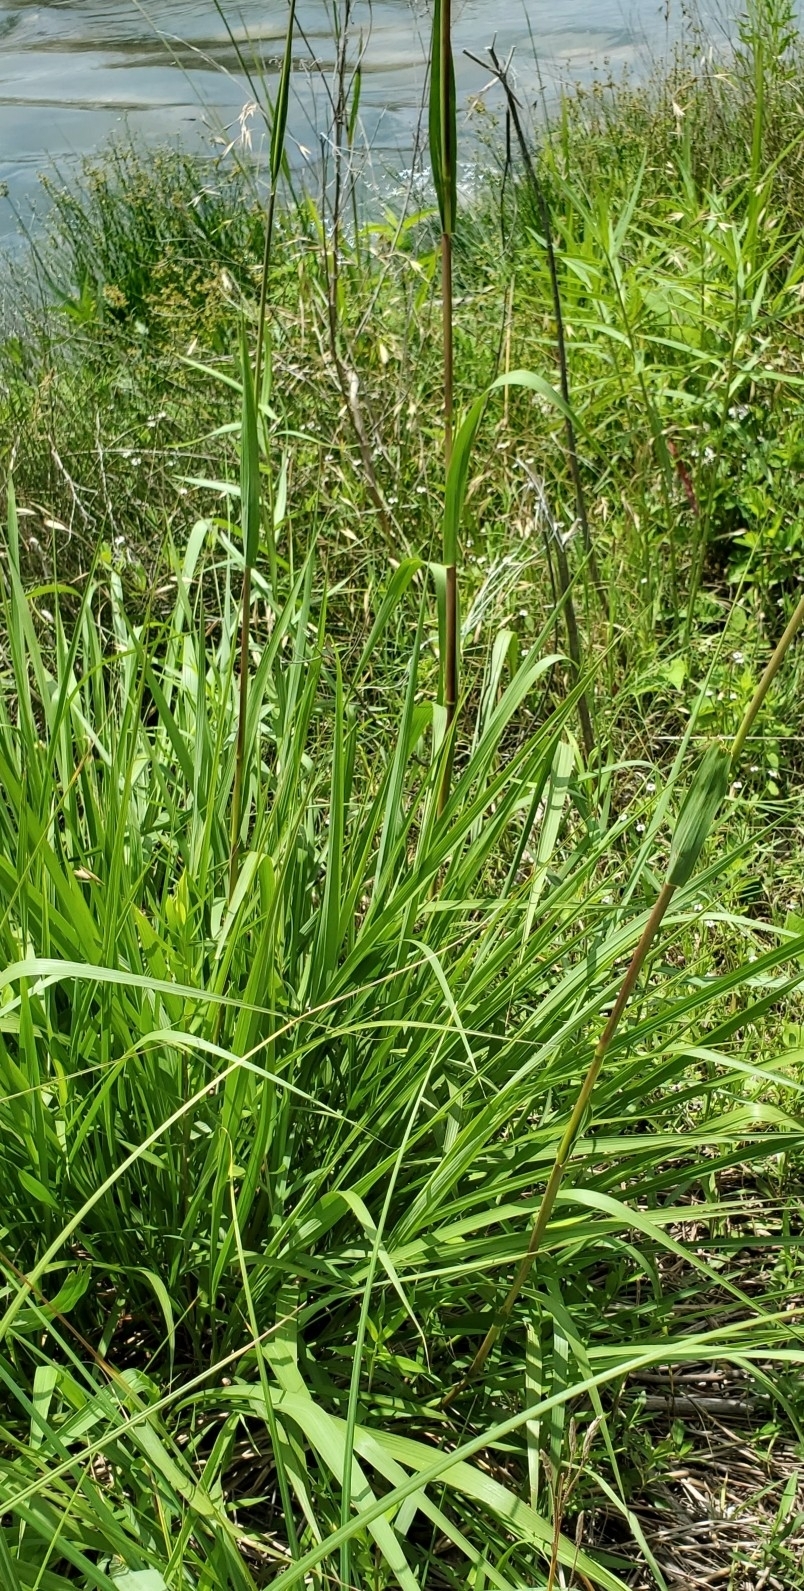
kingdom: Plantae
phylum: Tracheophyta
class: Liliopsida
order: Poales
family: Poaceae
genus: Tripsacum
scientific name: Tripsacum dactyloides
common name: Buffalo-grass
